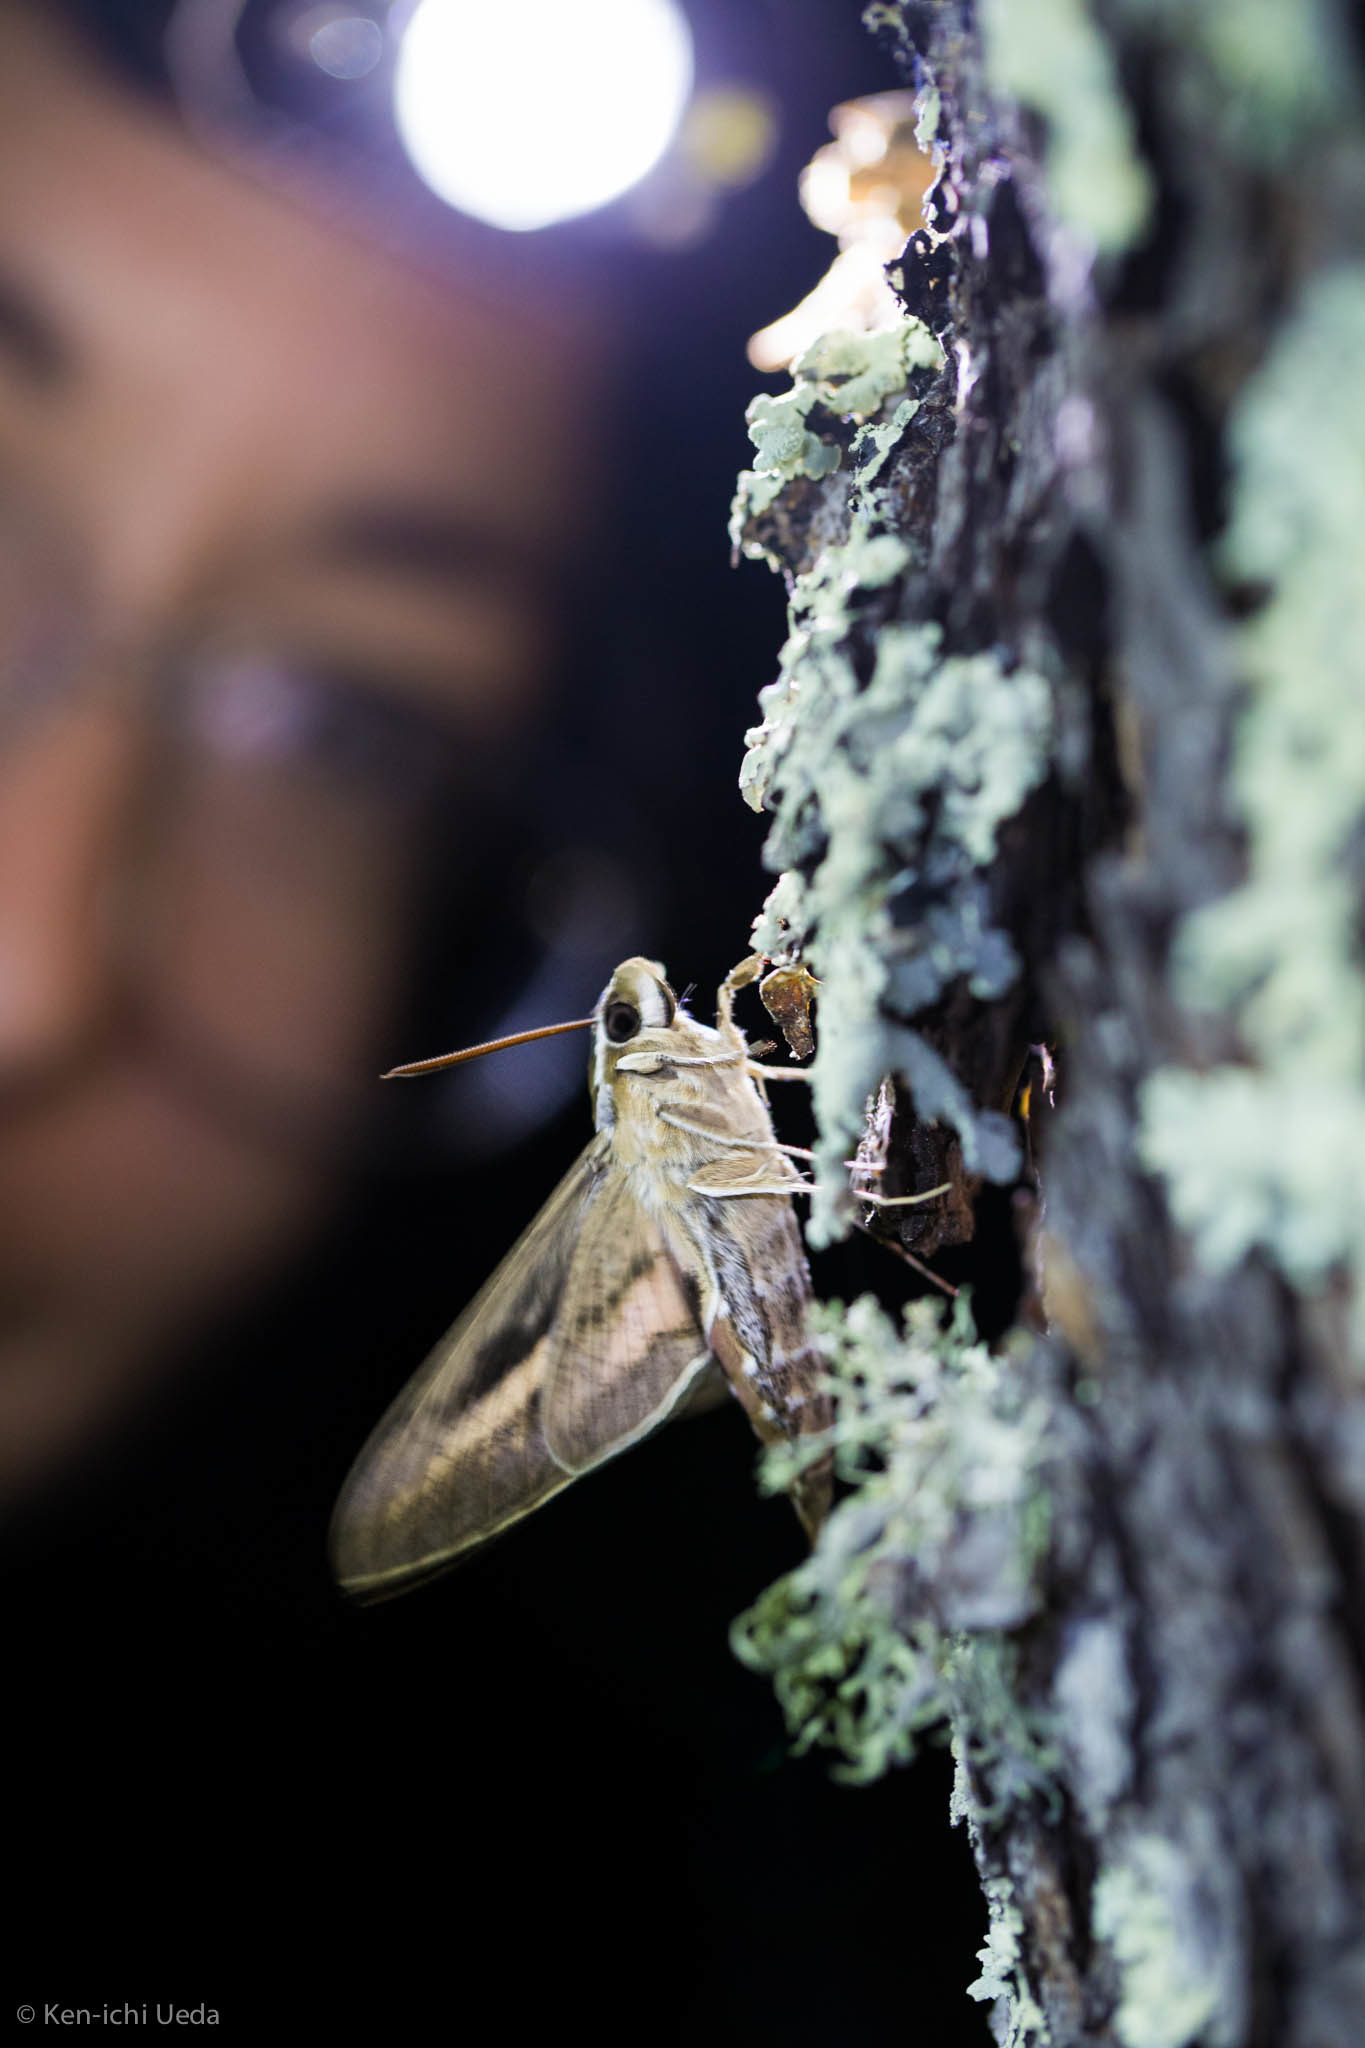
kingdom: Animalia
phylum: Arthropoda
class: Insecta
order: Lepidoptera
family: Sphingidae
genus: Hyles
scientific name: Hyles lineata
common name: White-lined sphinx
